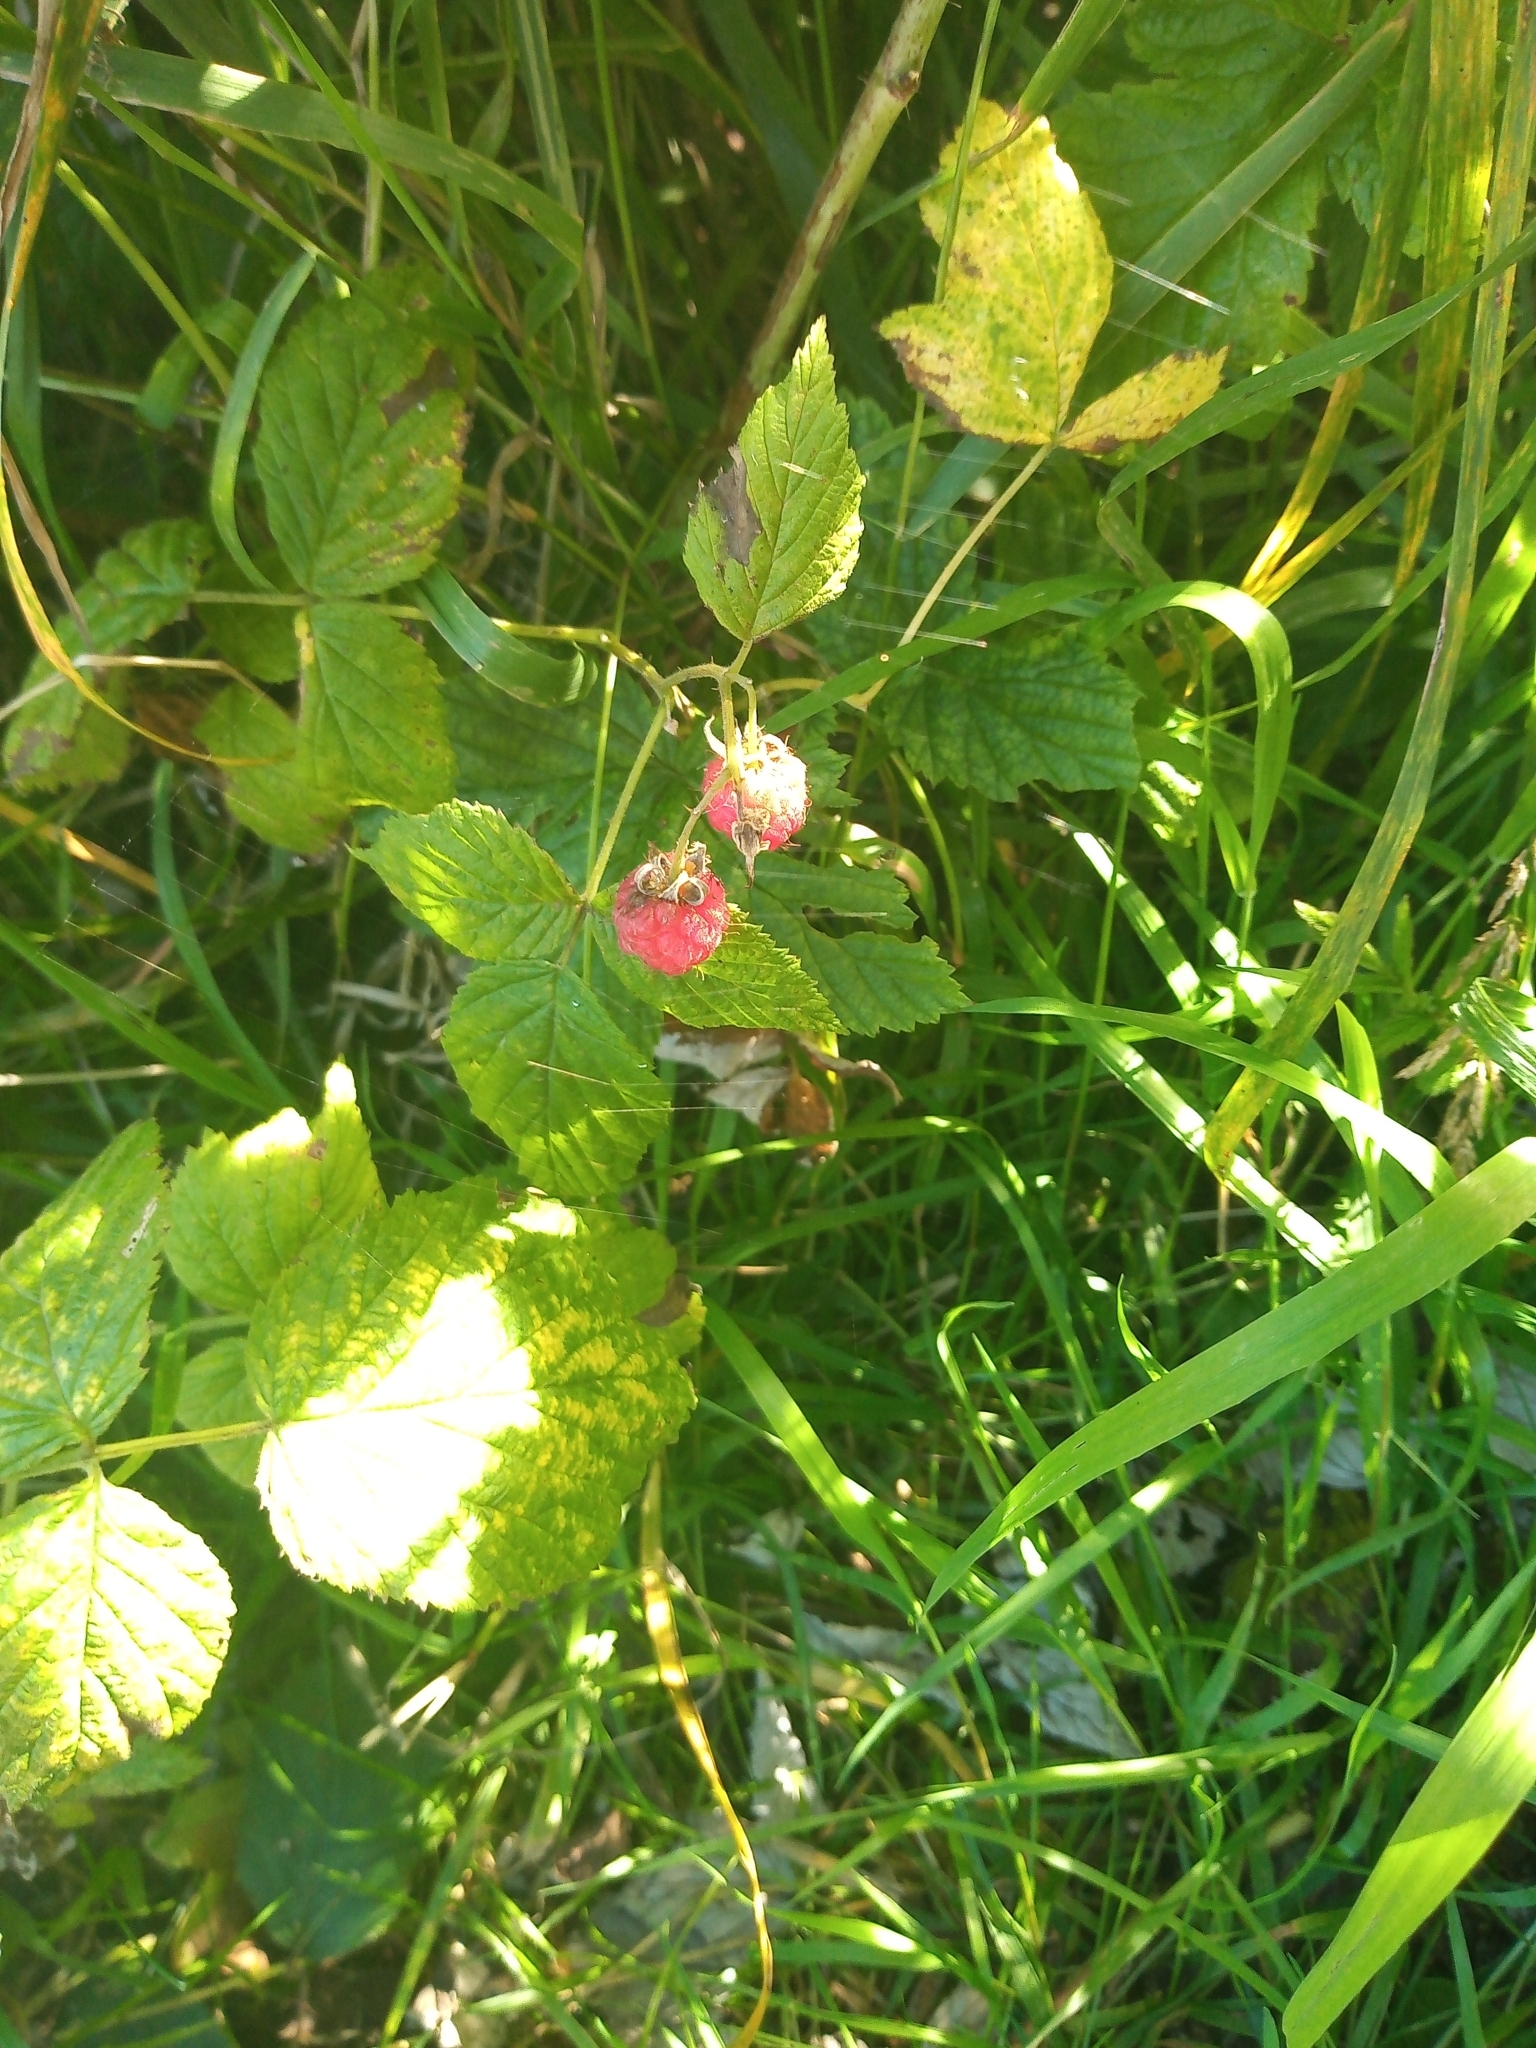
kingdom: Plantae
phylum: Tracheophyta
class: Magnoliopsida
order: Rosales
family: Rosaceae
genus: Rubus
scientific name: Rubus idaeus
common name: Raspberry
